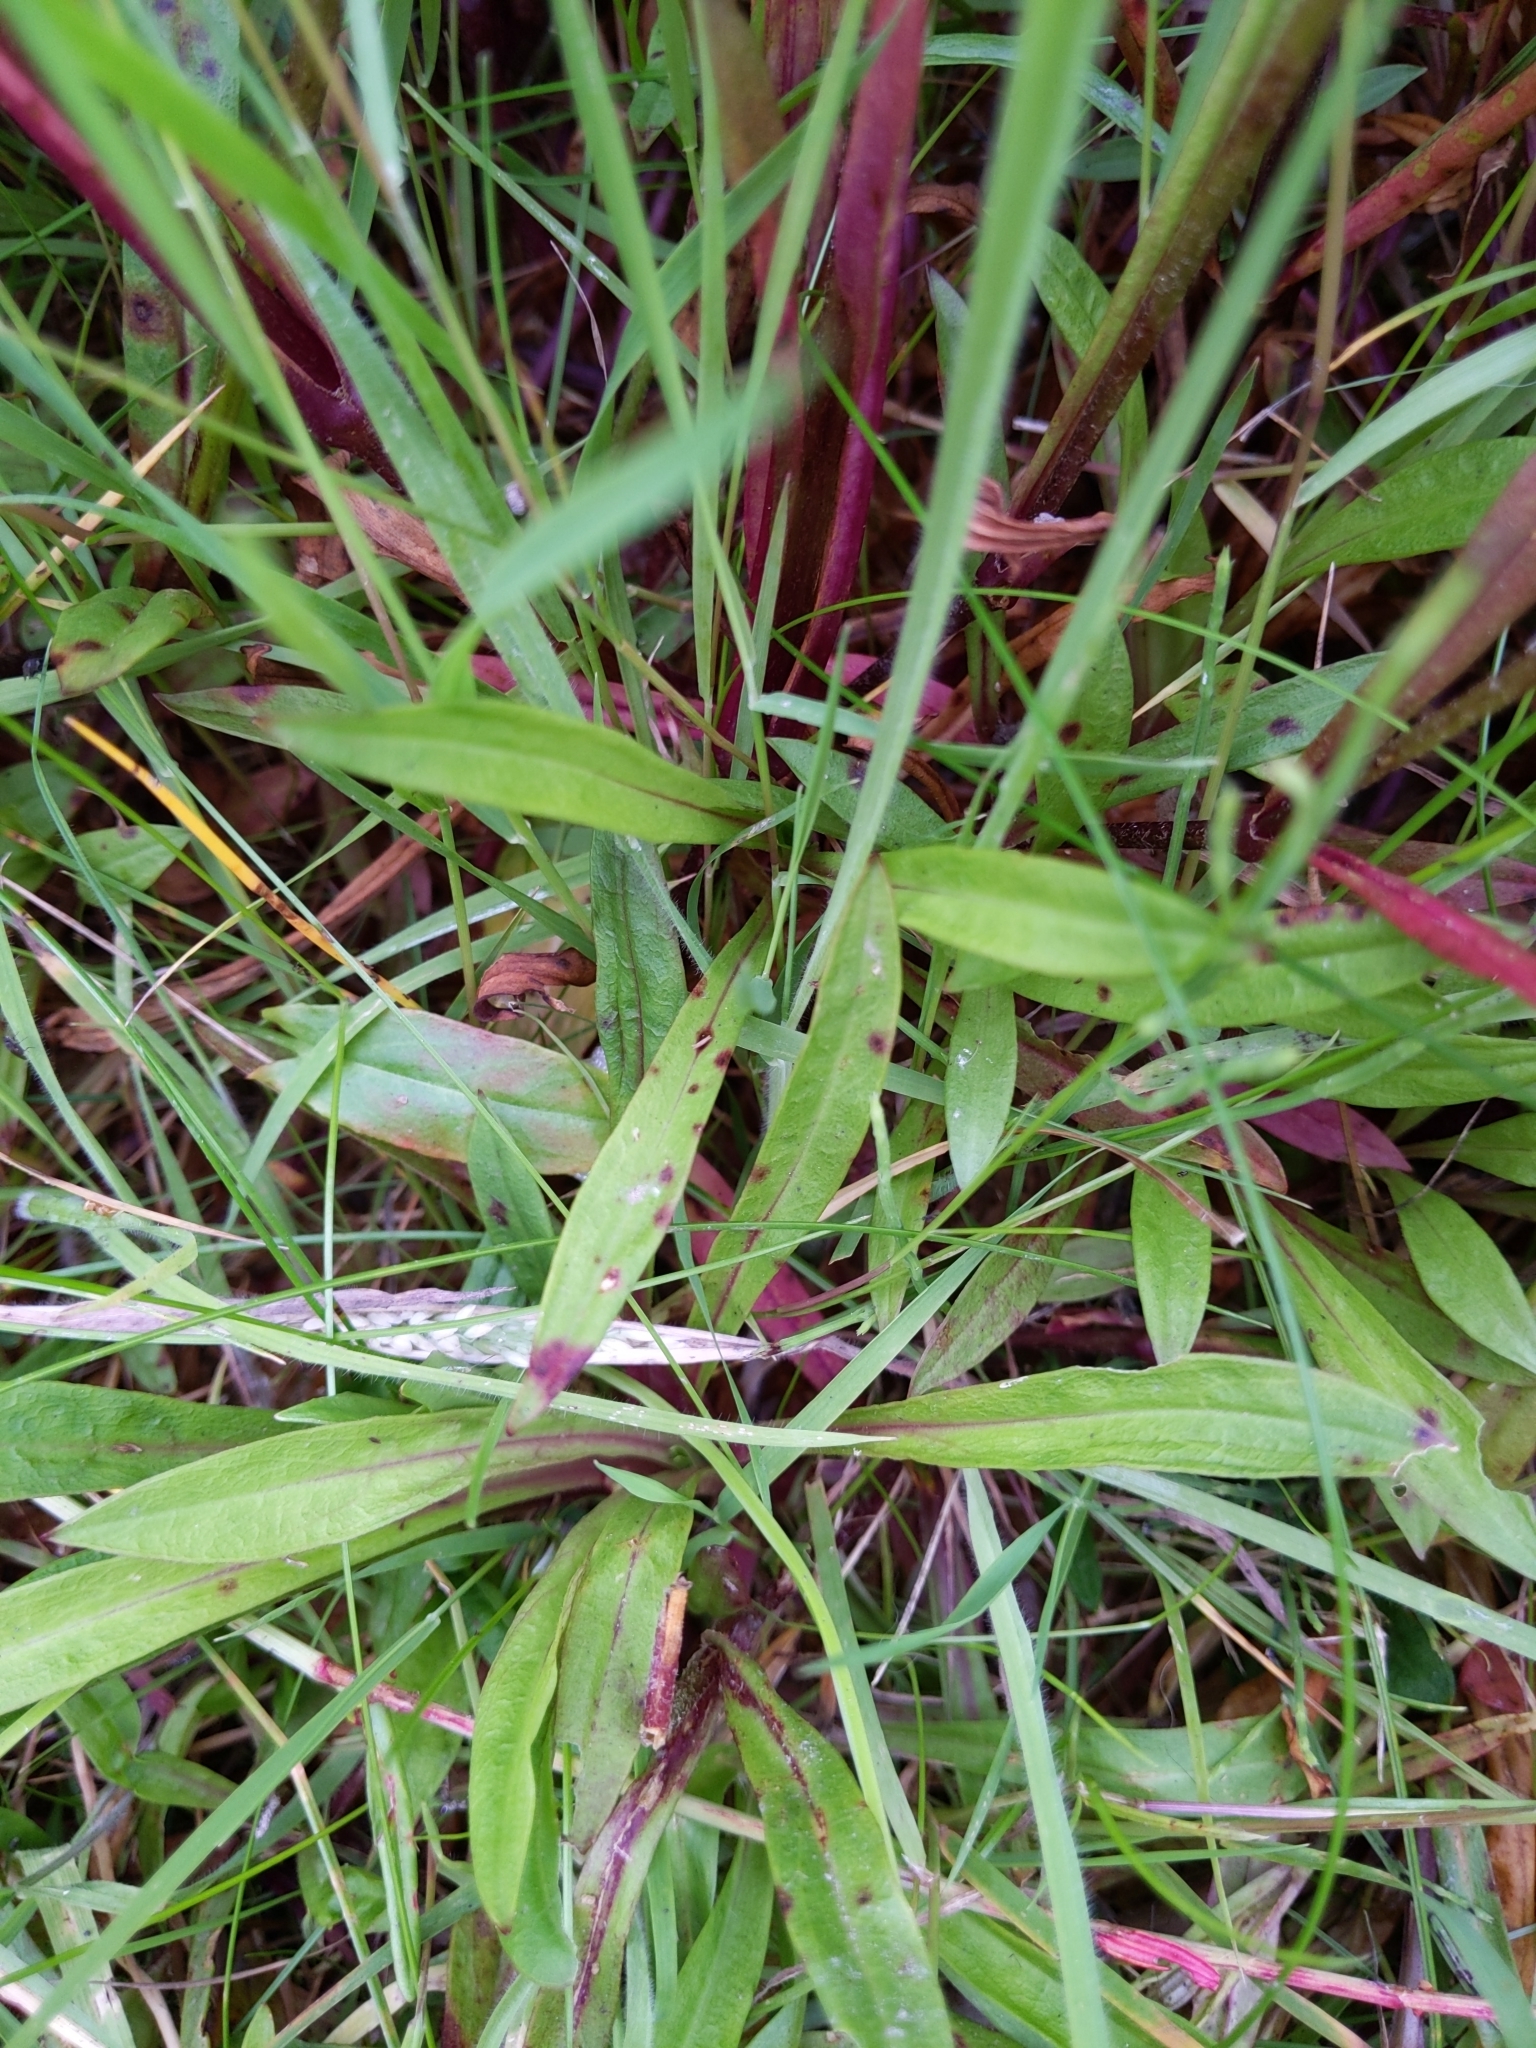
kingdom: Plantae
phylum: Tracheophyta
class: Magnoliopsida
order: Caryophyllales
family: Caryophyllaceae
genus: Silene
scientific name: Silene flos-cuculi
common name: Ragged-robin
